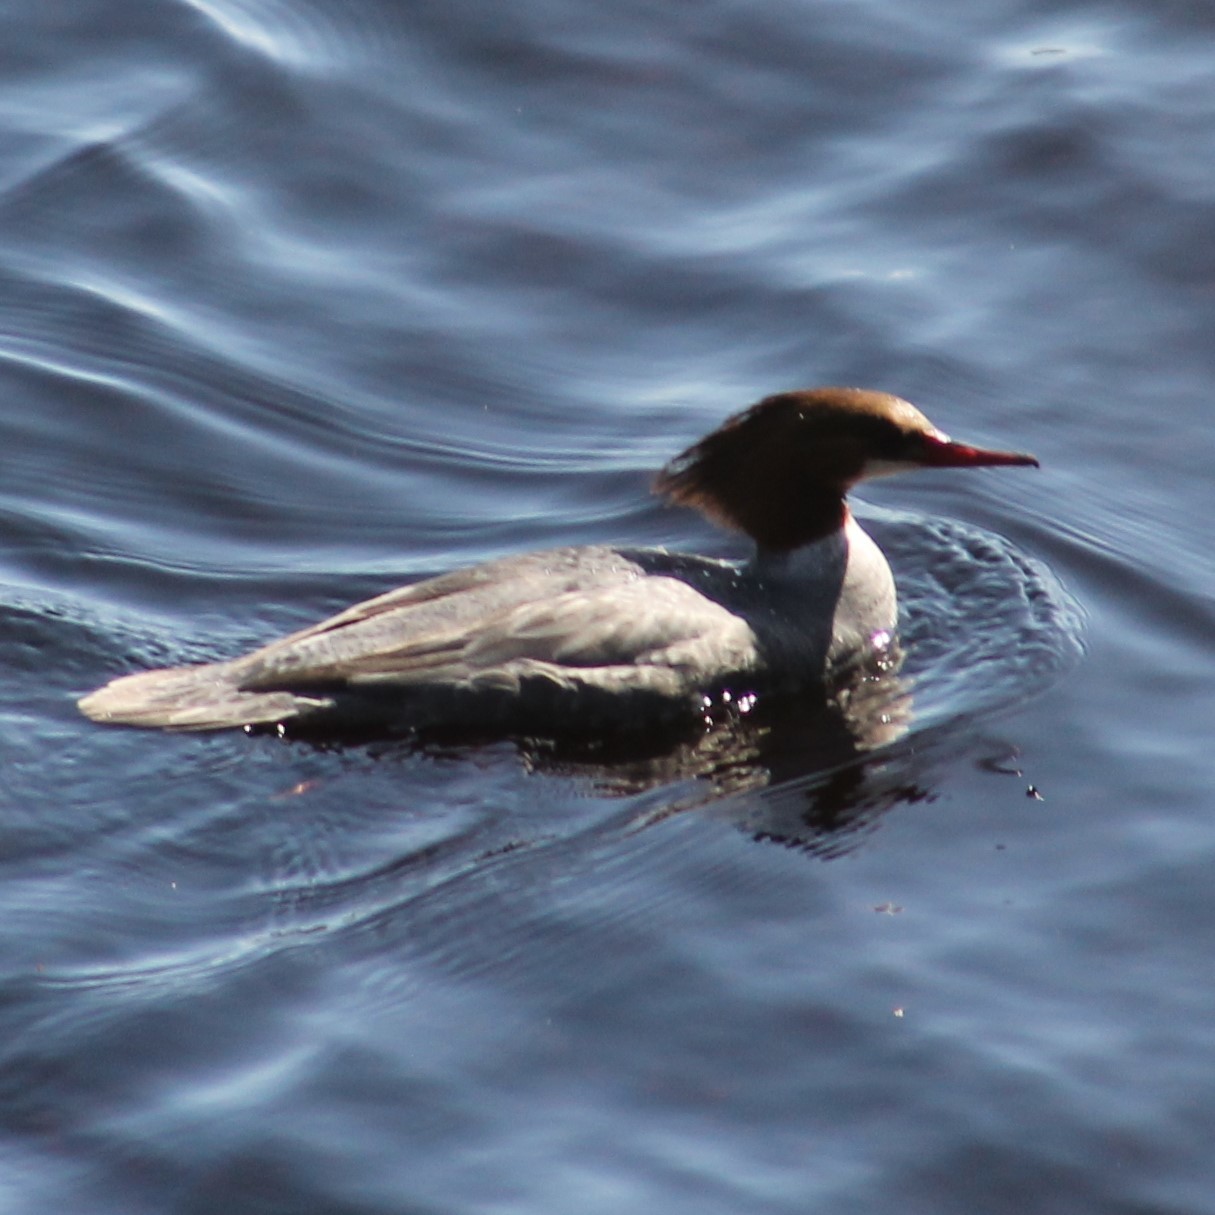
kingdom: Animalia
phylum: Chordata
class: Aves
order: Anseriformes
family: Anatidae
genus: Mergus
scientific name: Mergus merganser
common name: Common merganser
